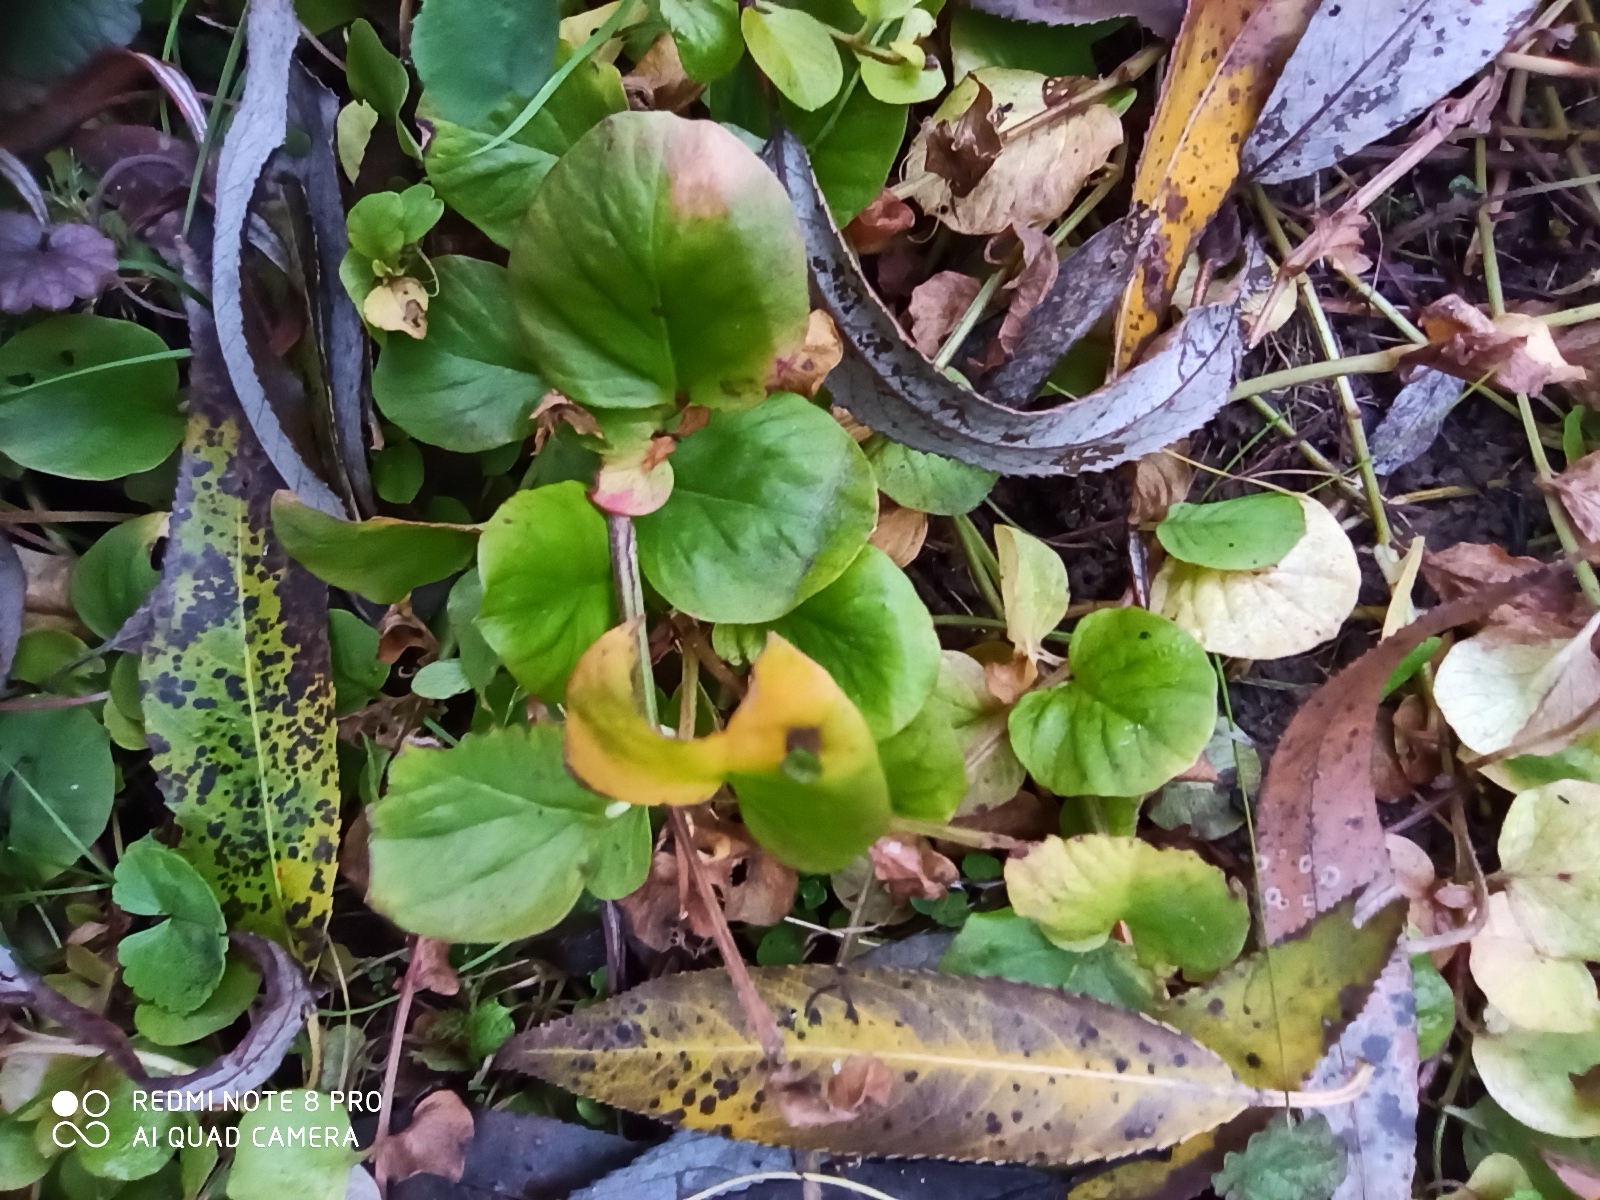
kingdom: Plantae
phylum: Tracheophyta
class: Magnoliopsida
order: Ericales
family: Primulaceae
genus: Lysimachia
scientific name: Lysimachia nummularia
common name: Moneywort
